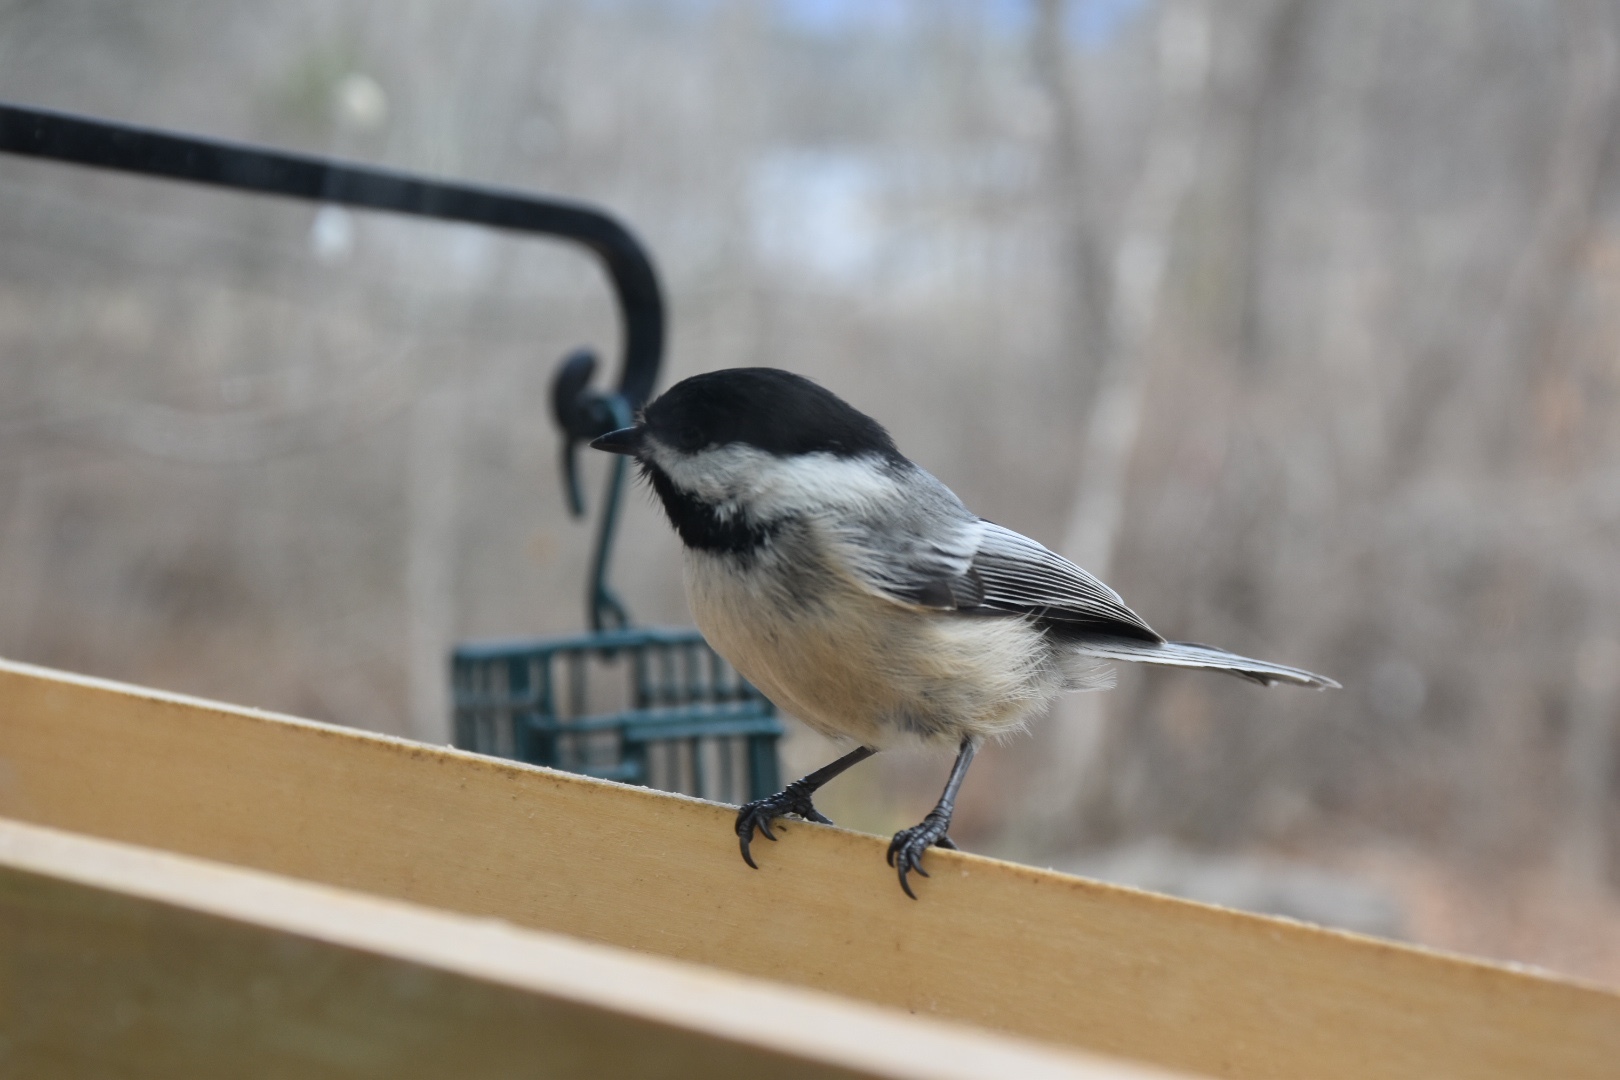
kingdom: Animalia
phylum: Chordata
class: Aves
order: Passeriformes
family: Paridae
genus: Poecile
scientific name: Poecile atricapillus
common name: Black-capped chickadee
